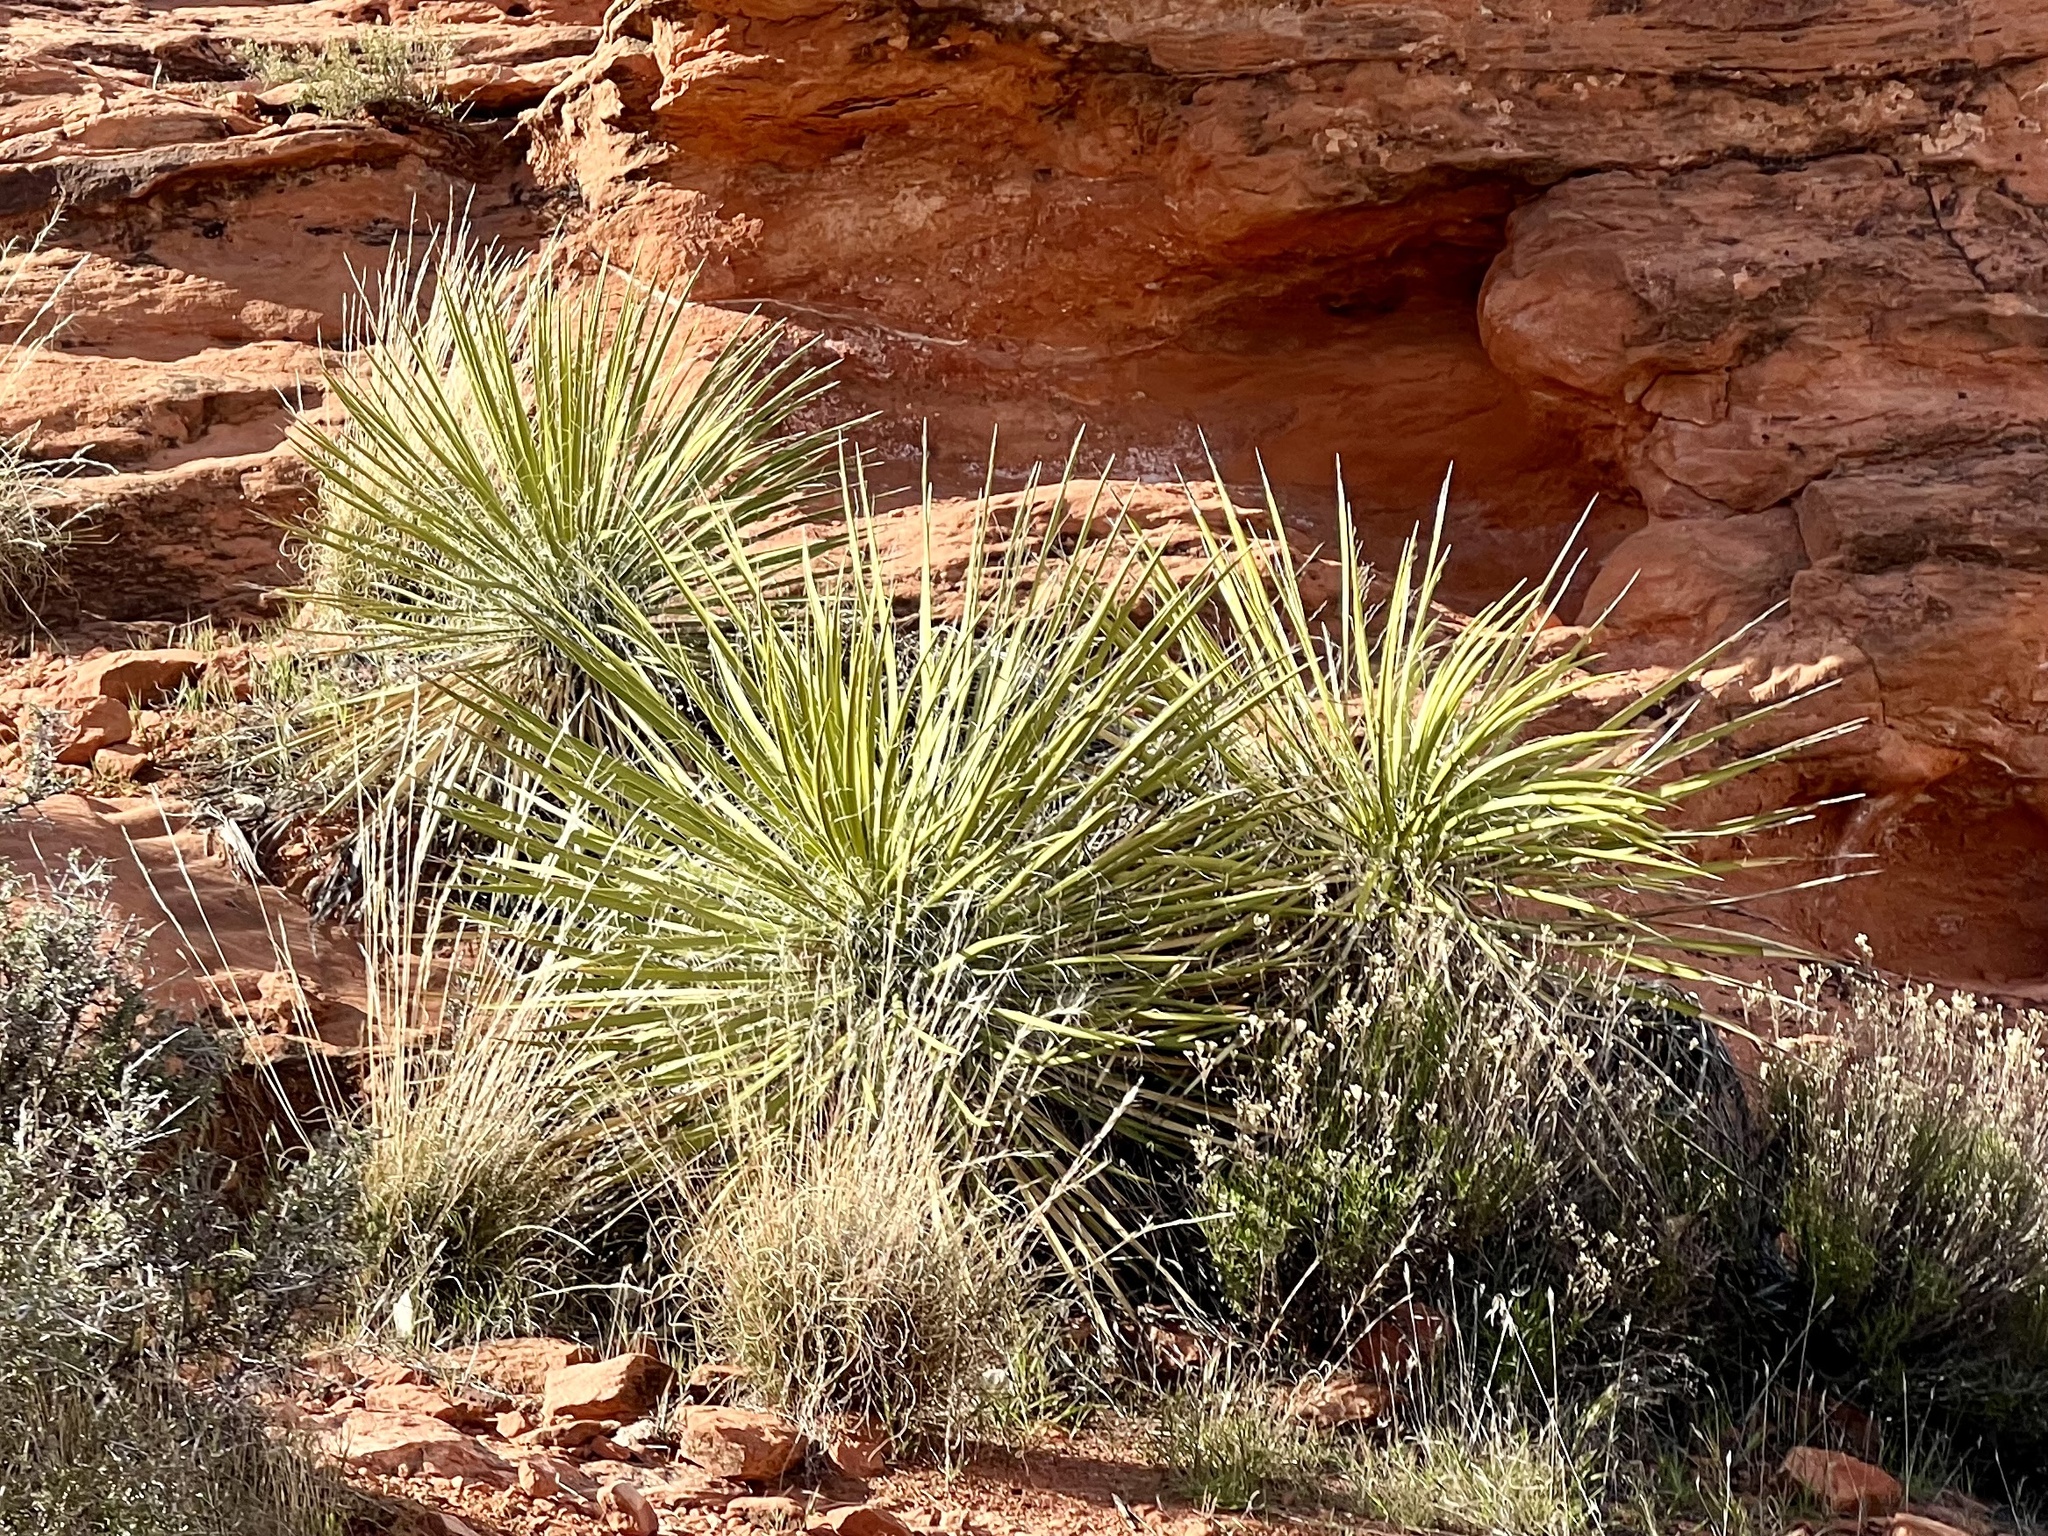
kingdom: Plantae
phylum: Tracheophyta
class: Liliopsida
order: Asparagales
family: Asparagaceae
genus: Yucca
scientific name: Yucca utahensis
